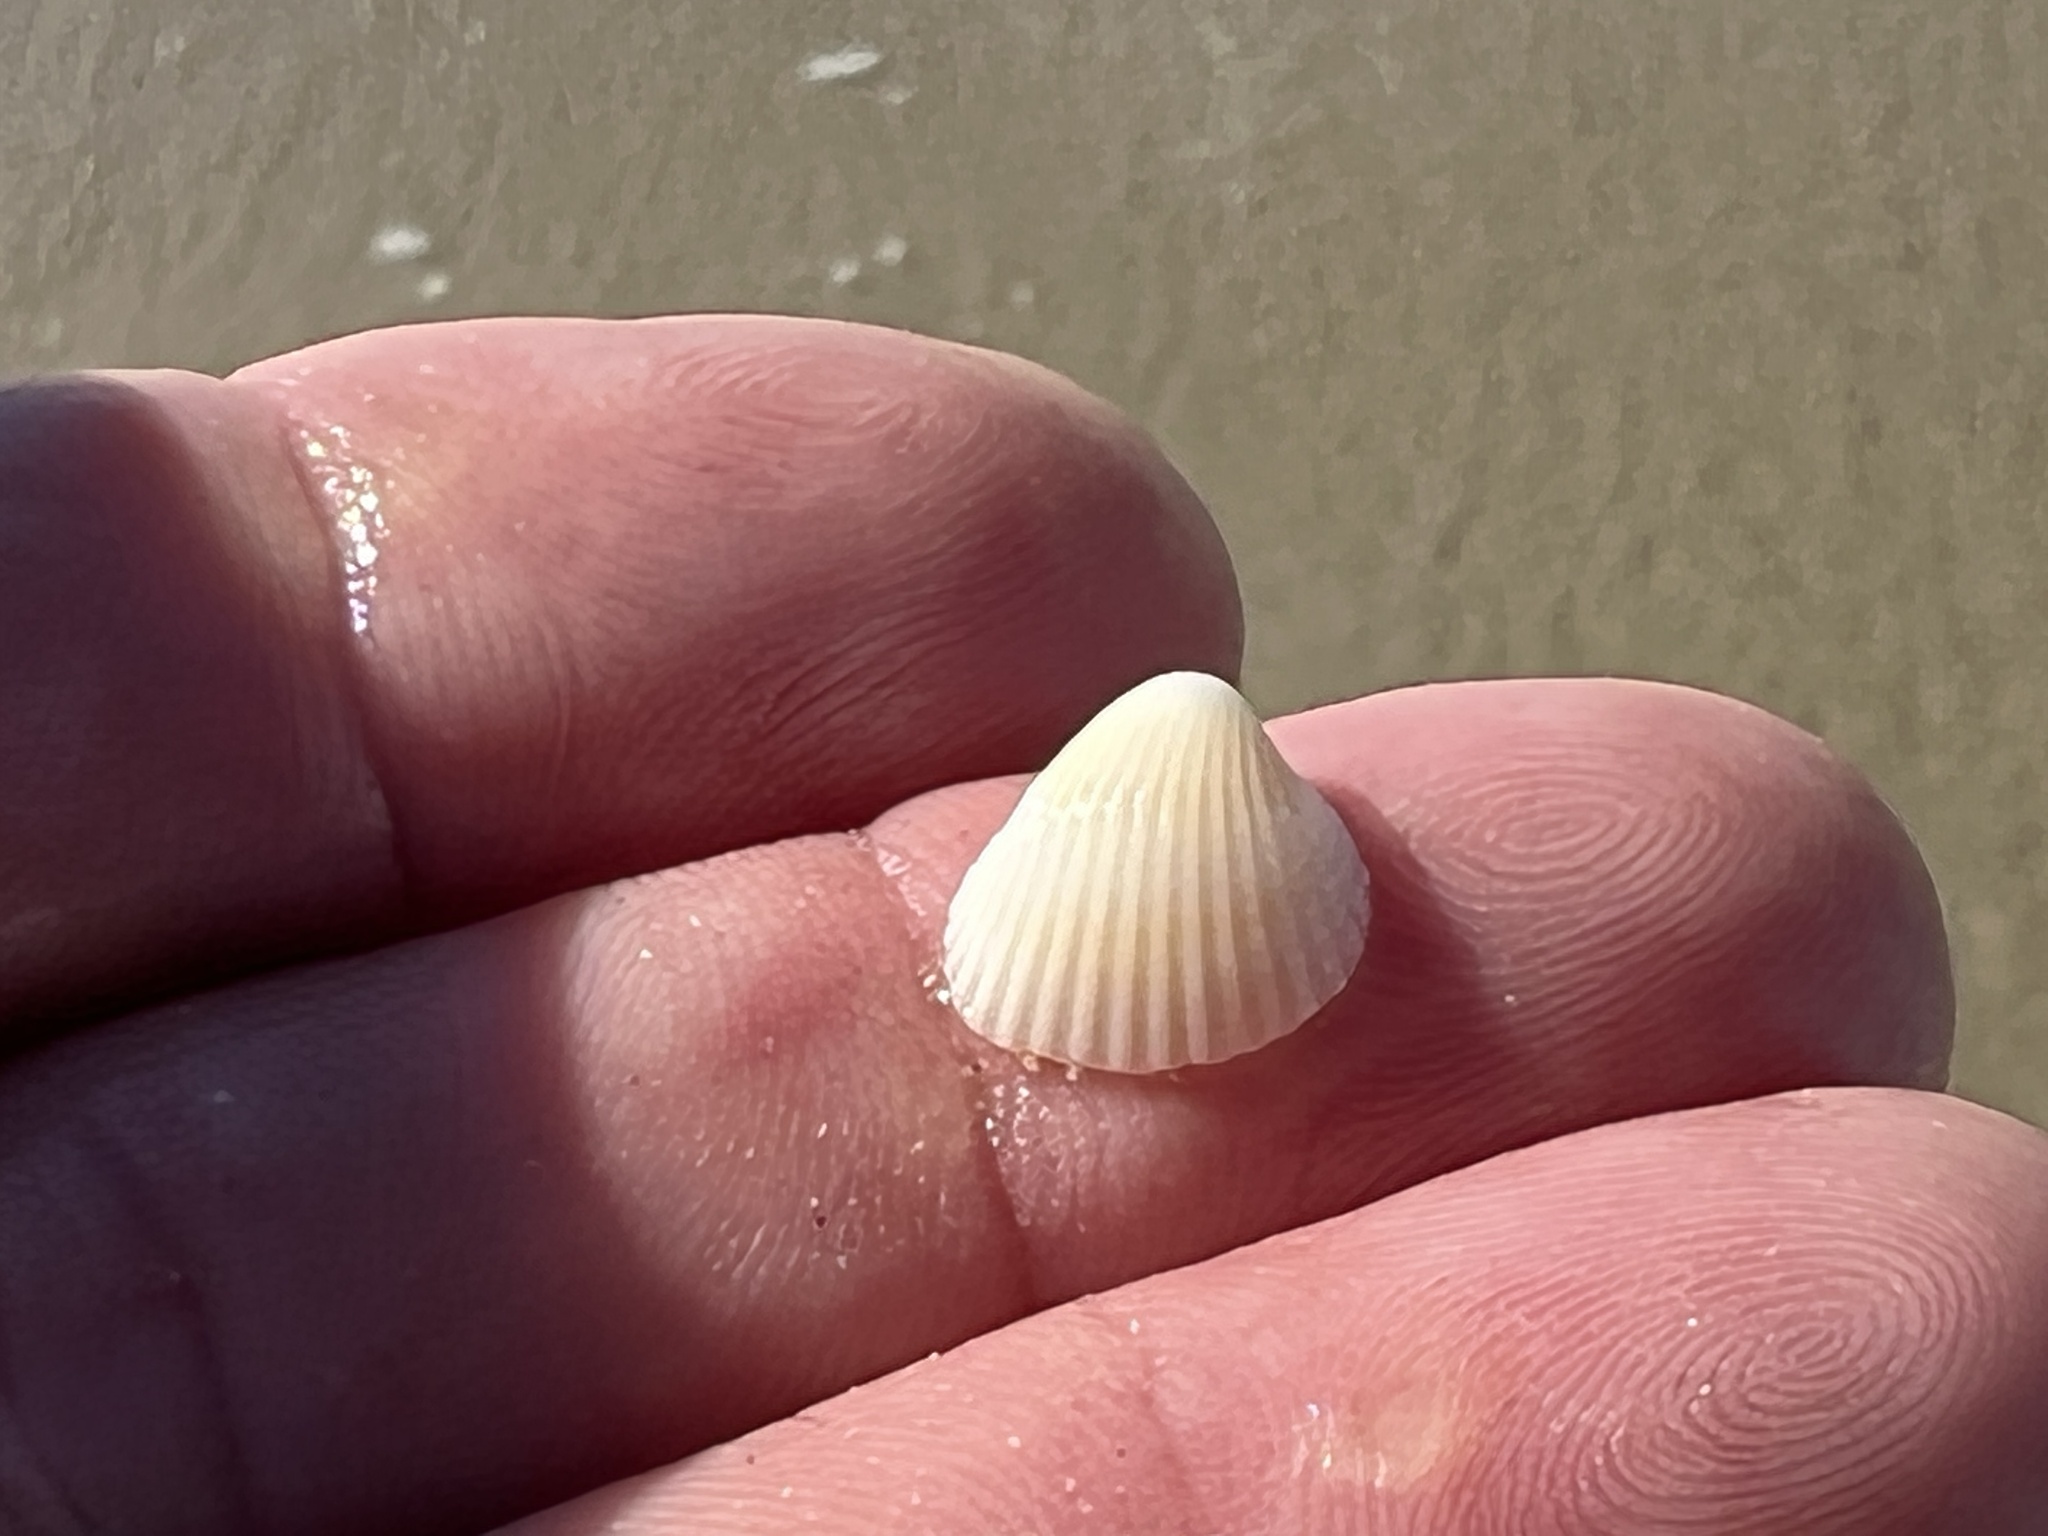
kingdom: Animalia
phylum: Mollusca
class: Bivalvia
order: Arcida
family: Arcidae
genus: Anadara
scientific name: Anadara chemnitzii
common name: Chemnitz's triangular ark
